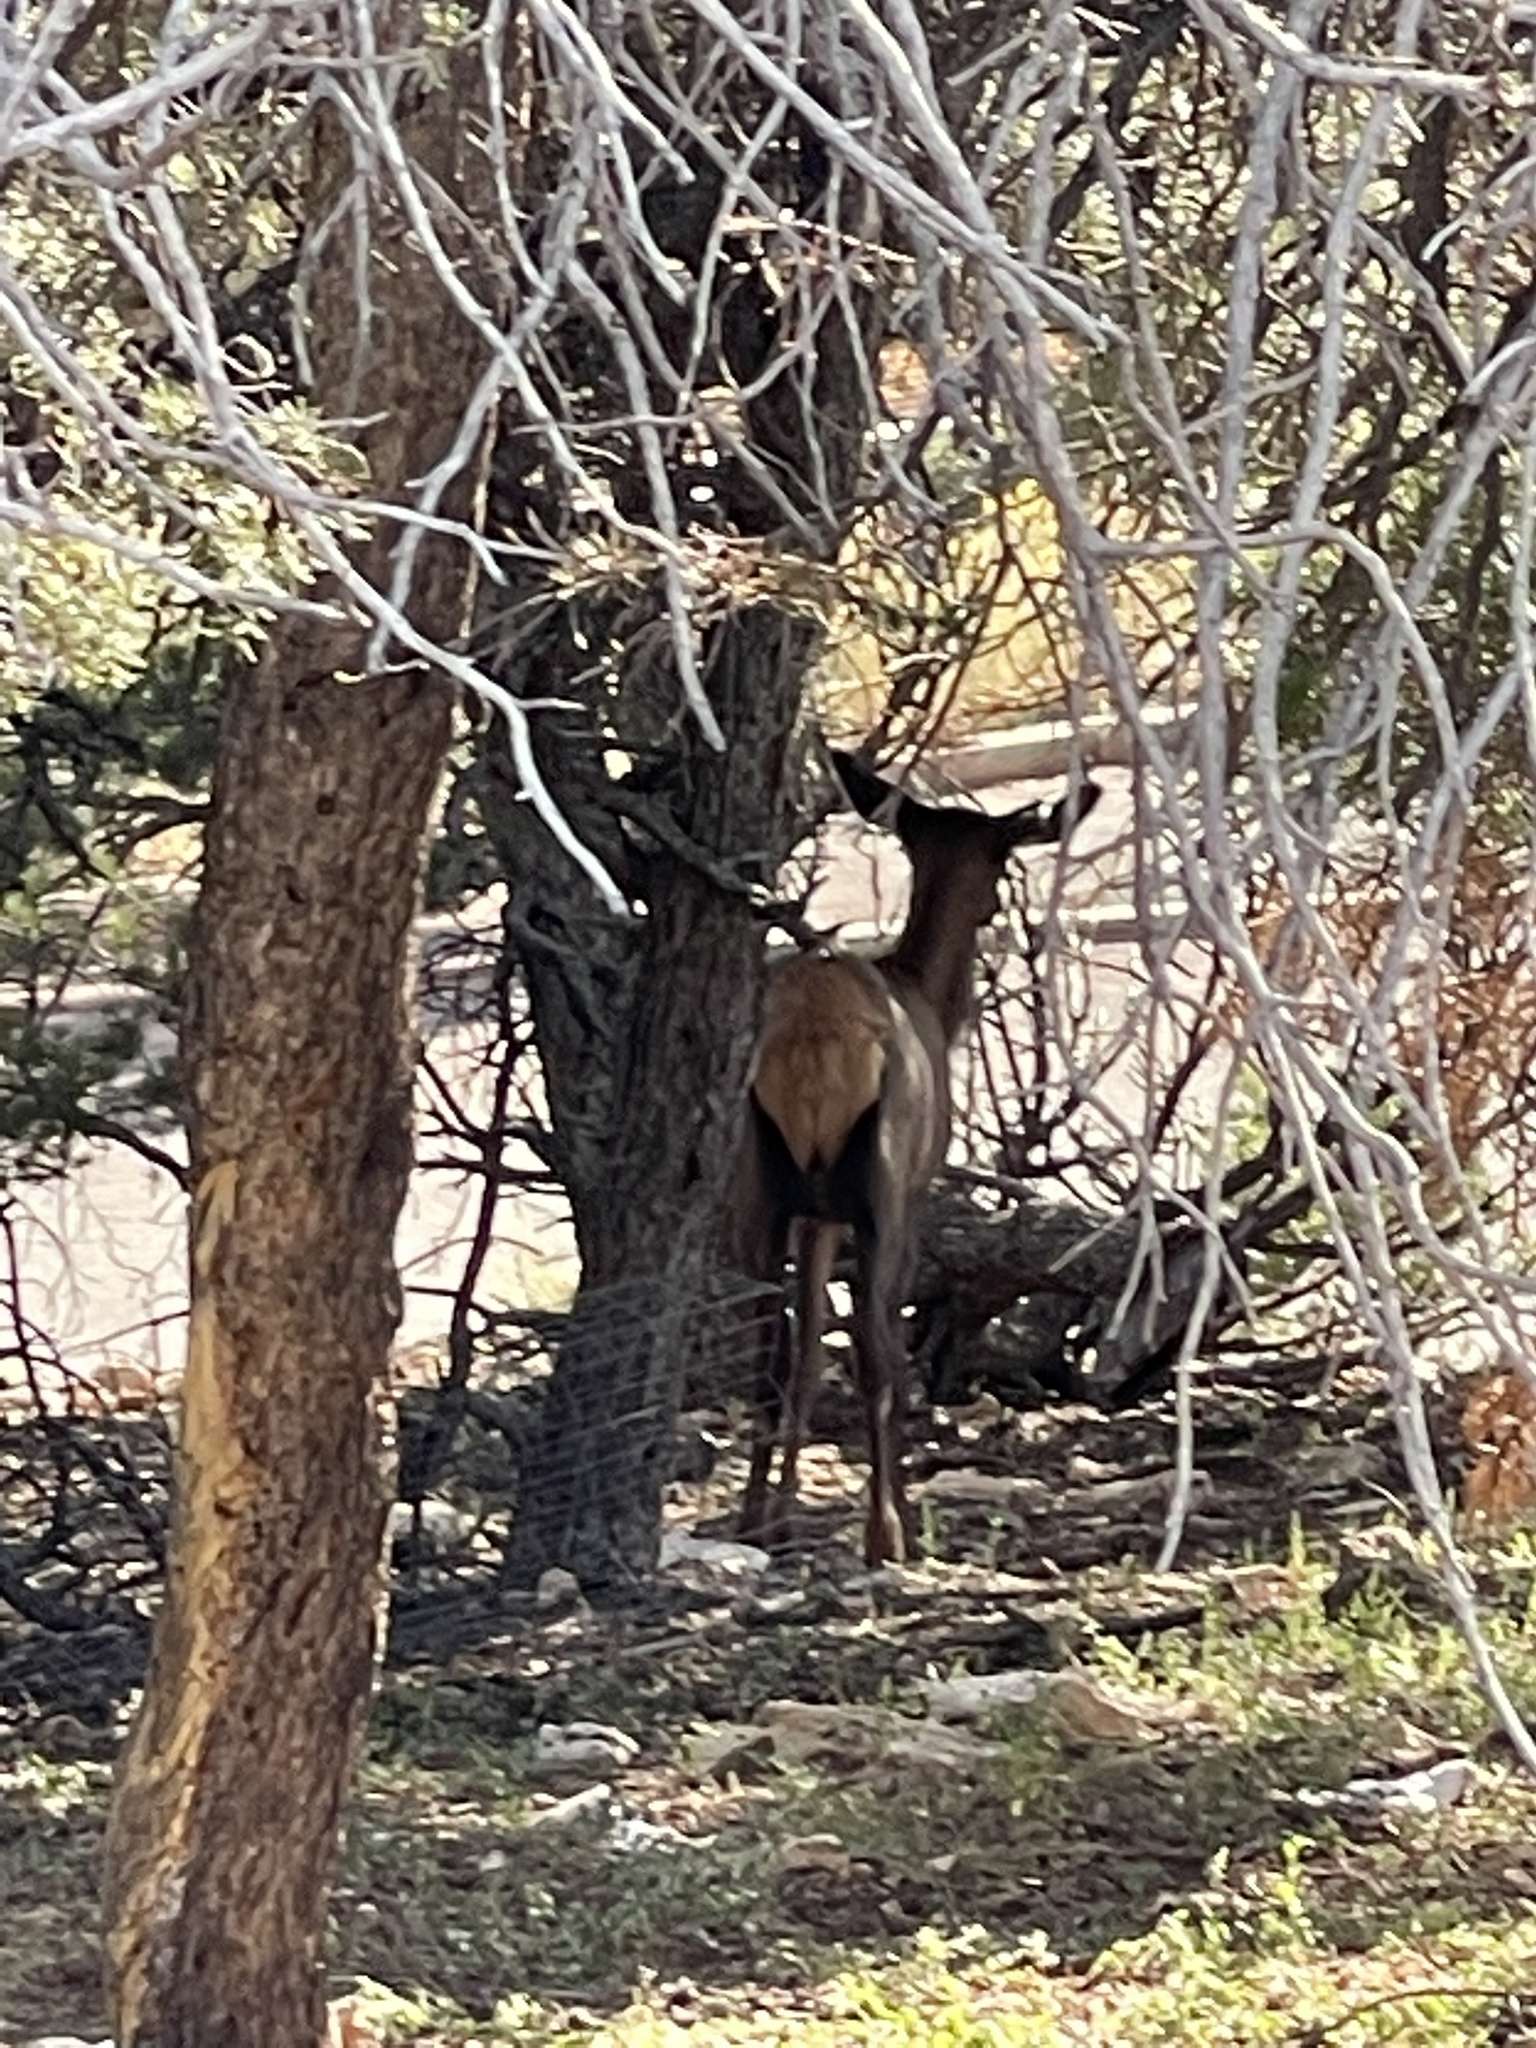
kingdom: Animalia
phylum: Chordata
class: Mammalia
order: Artiodactyla
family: Cervidae
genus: Cervus
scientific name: Cervus elaphus
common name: Red deer
